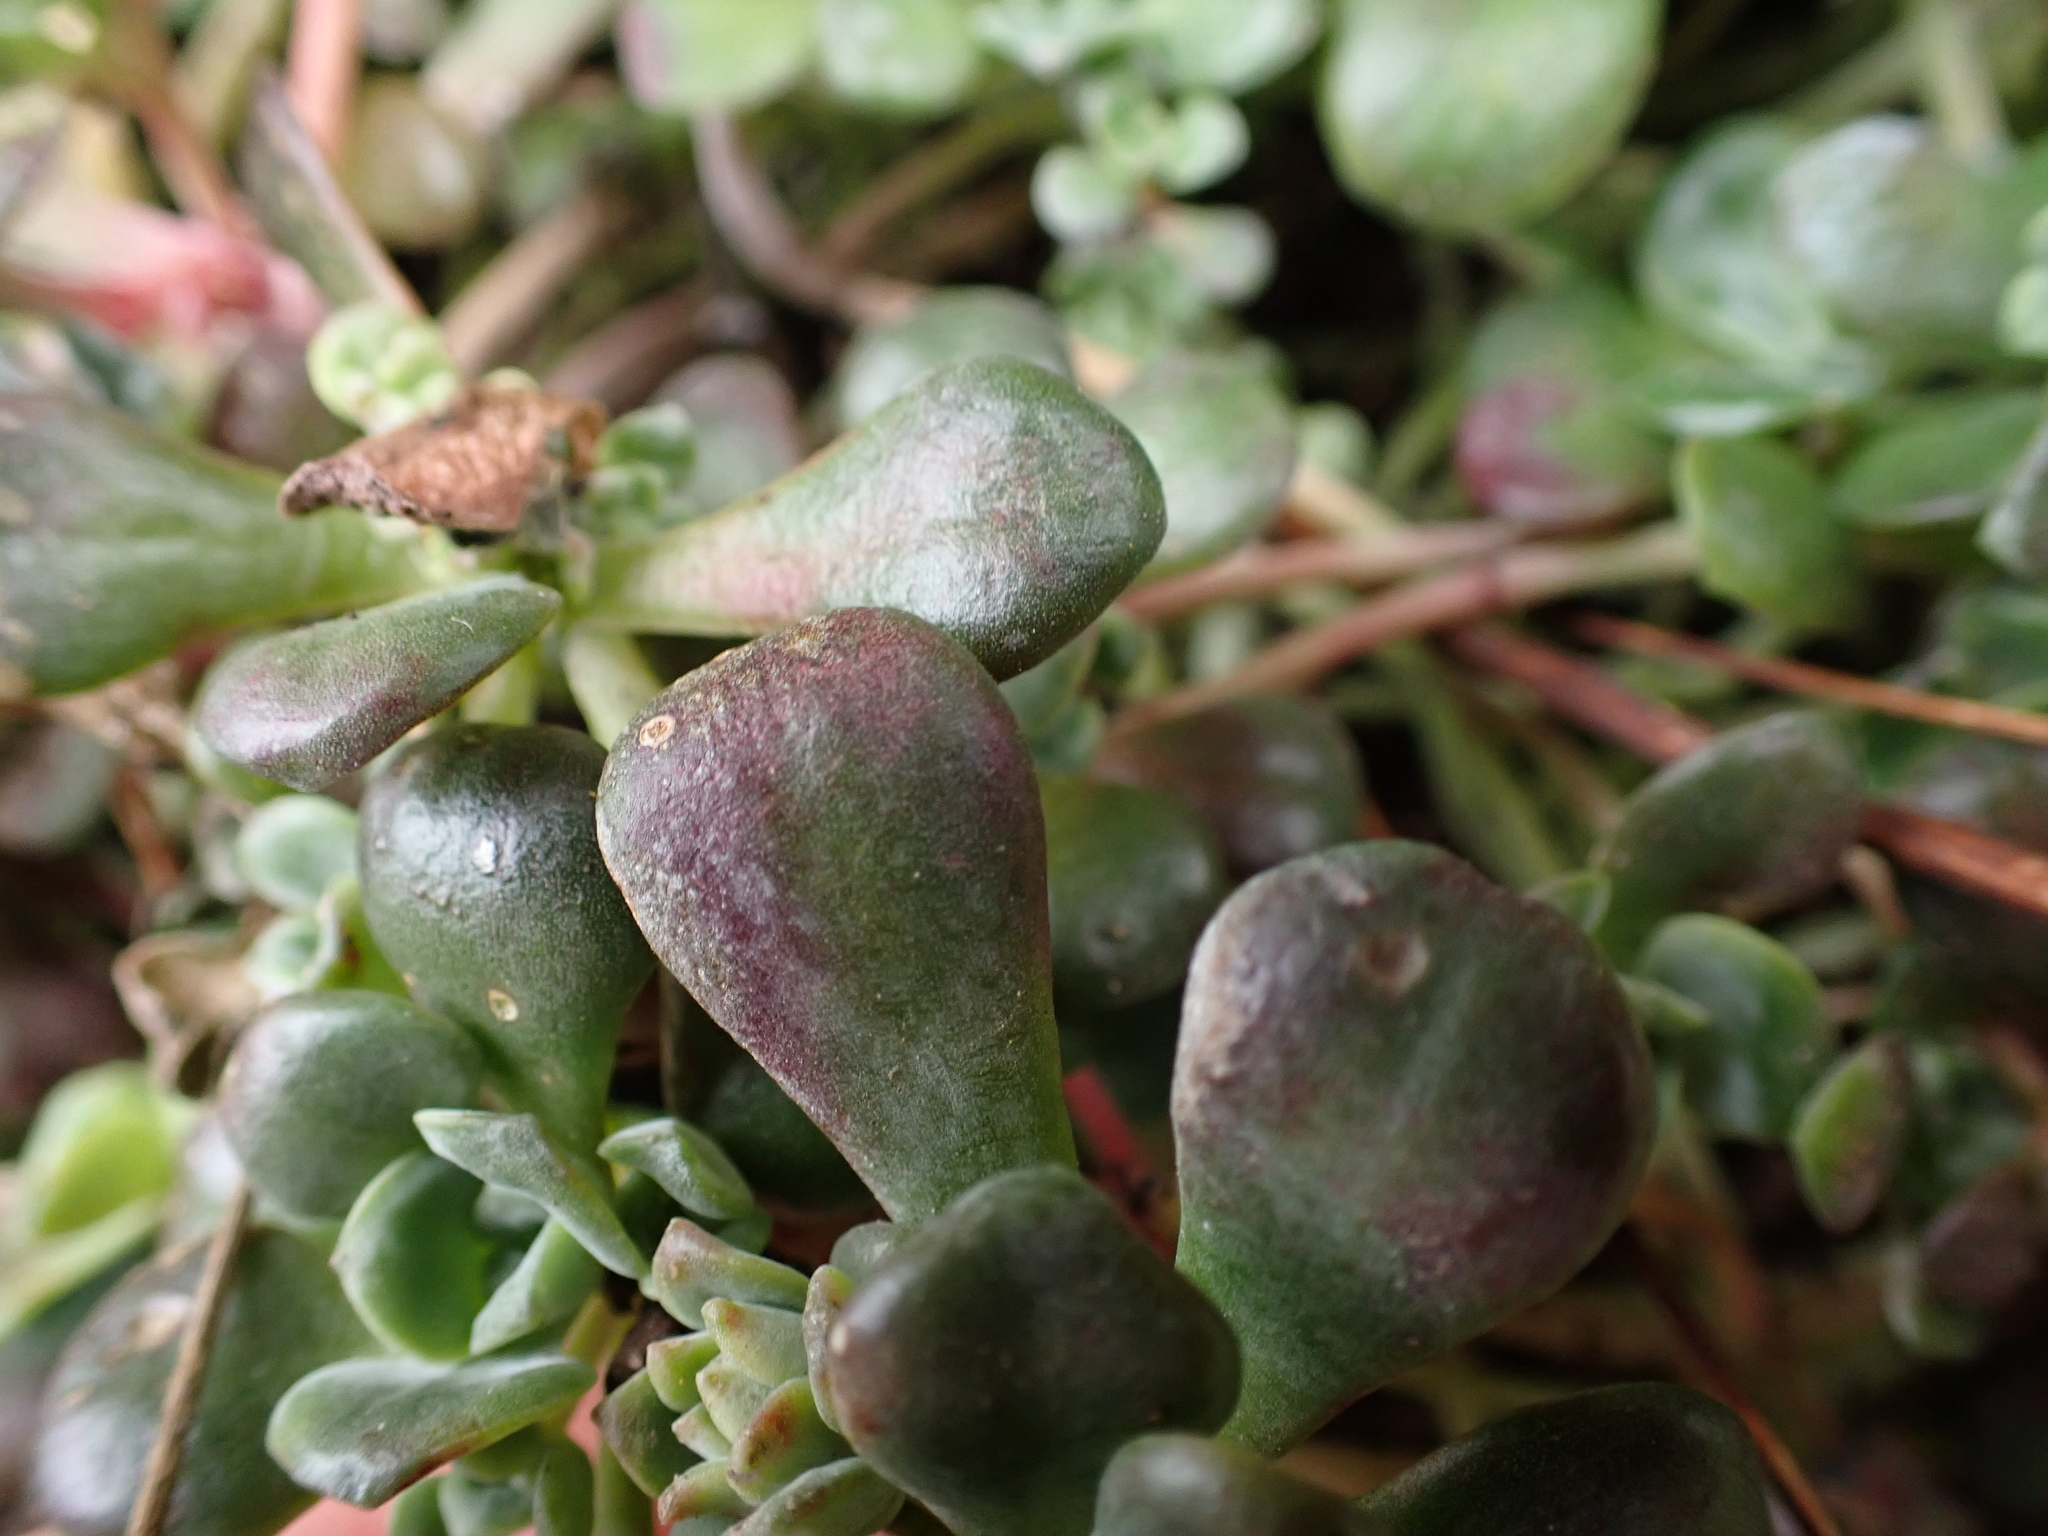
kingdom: Plantae
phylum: Tracheophyta
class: Magnoliopsida
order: Saxifragales
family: Crassulaceae
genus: Sedum
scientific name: Sedum spathulifolium
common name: Colorado stonecrop
